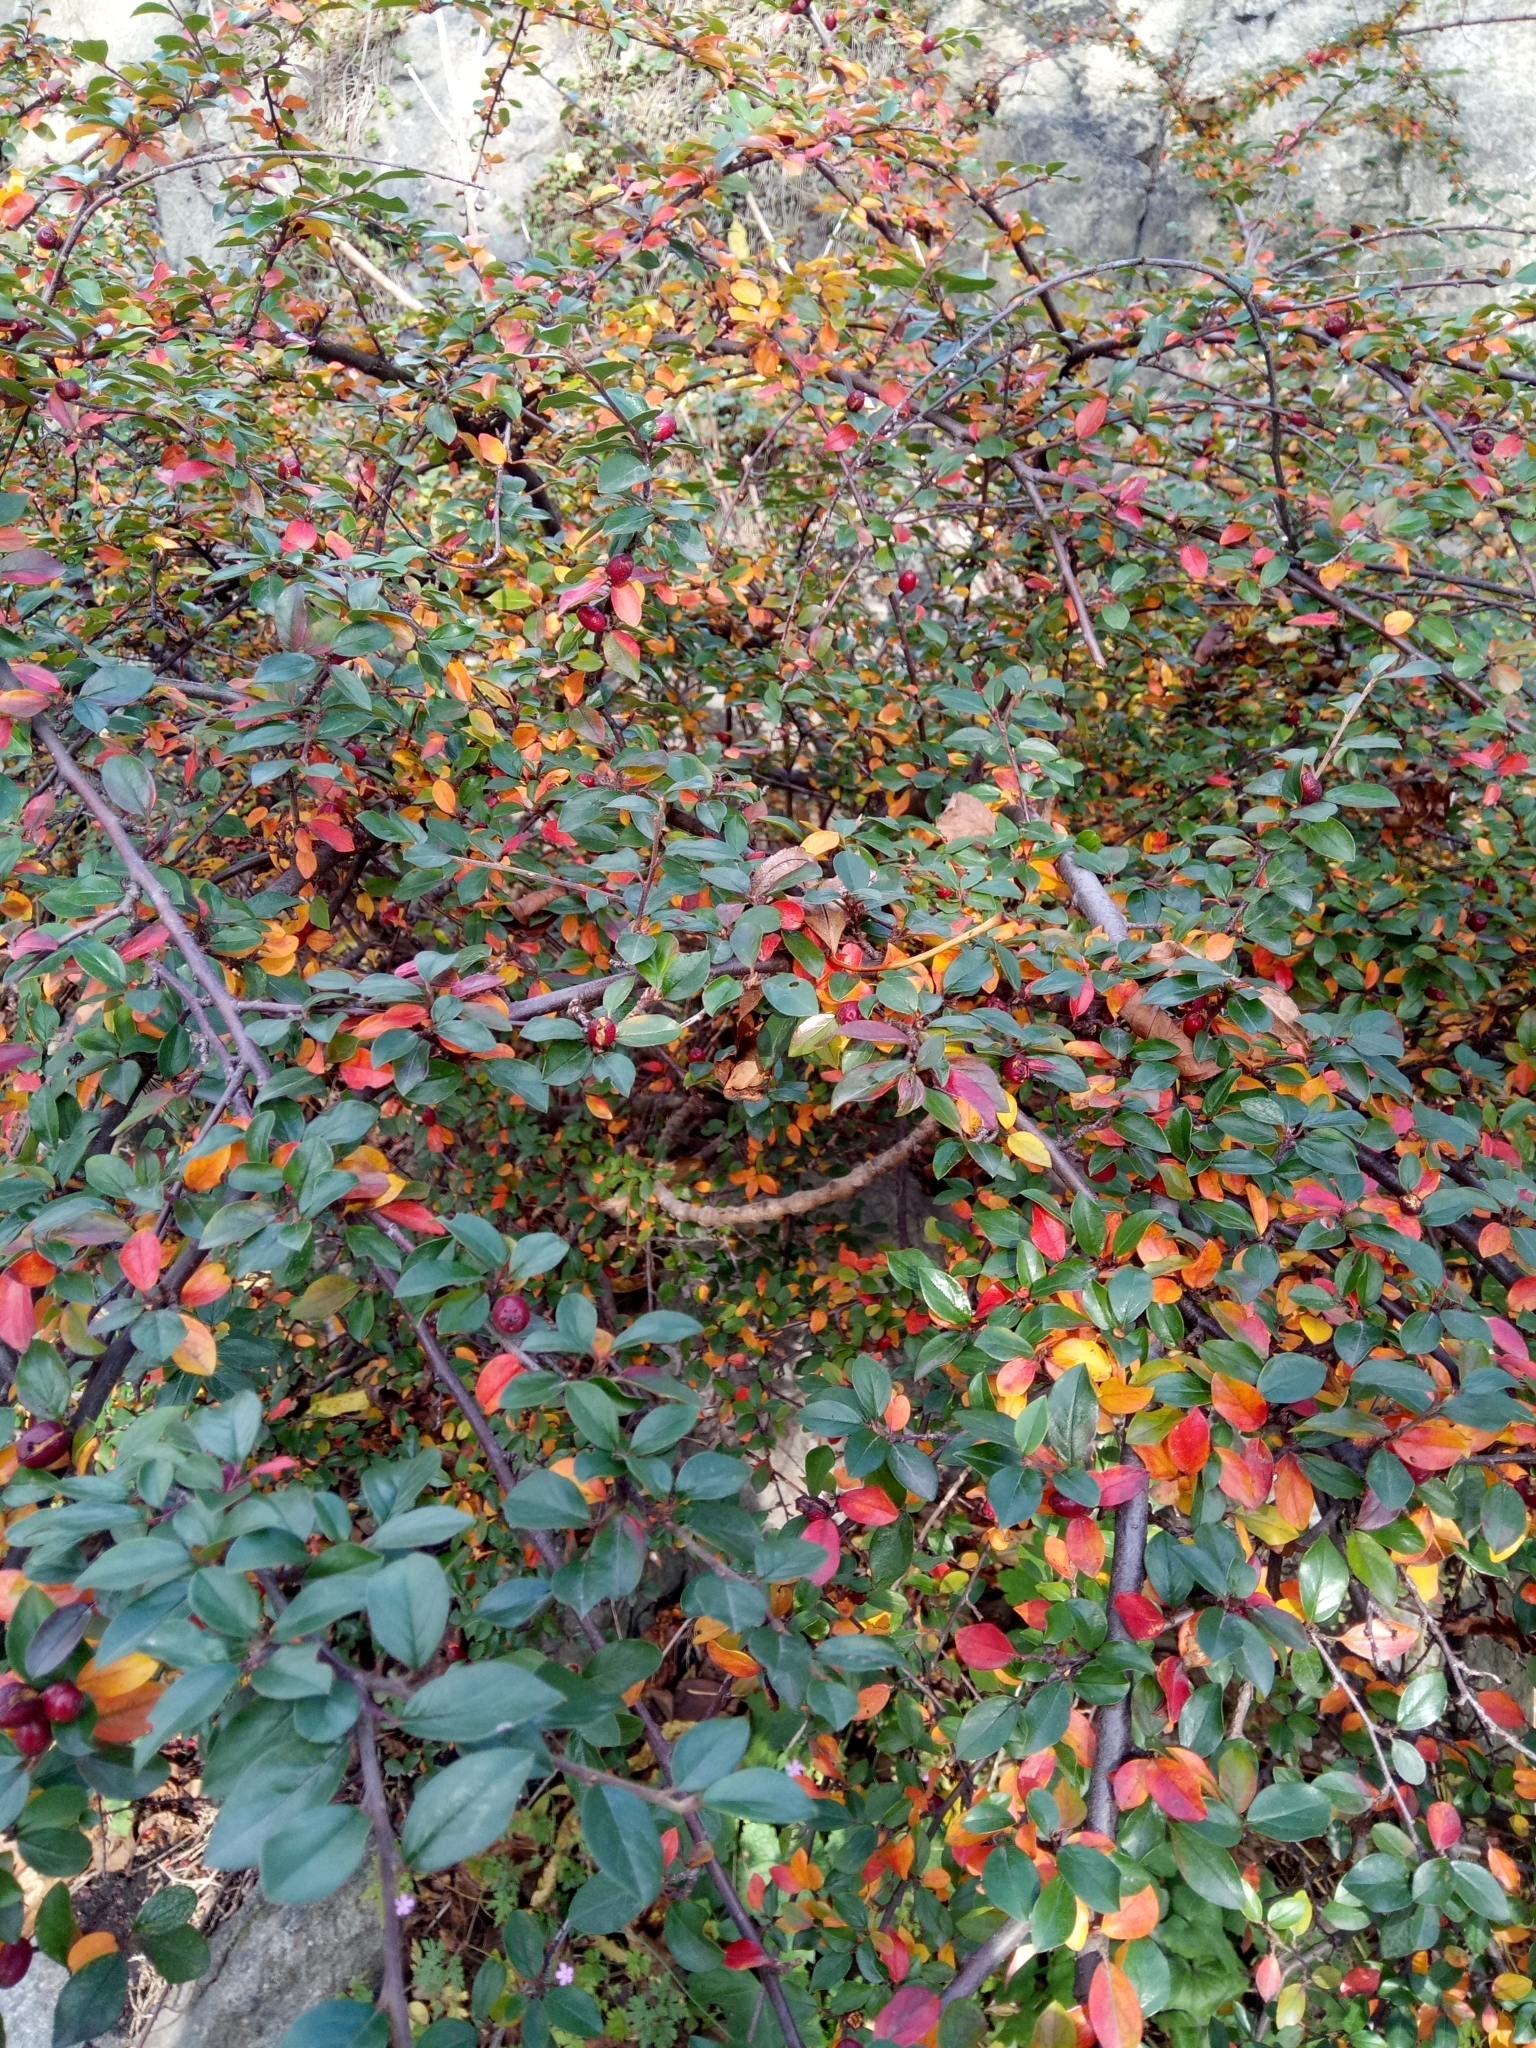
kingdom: Plantae
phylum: Tracheophyta
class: Magnoliopsida
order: Rosales
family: Rosaceae
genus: Cotoneaster
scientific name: Cotoneaster divaricatus
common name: Spreading cotoneaster
